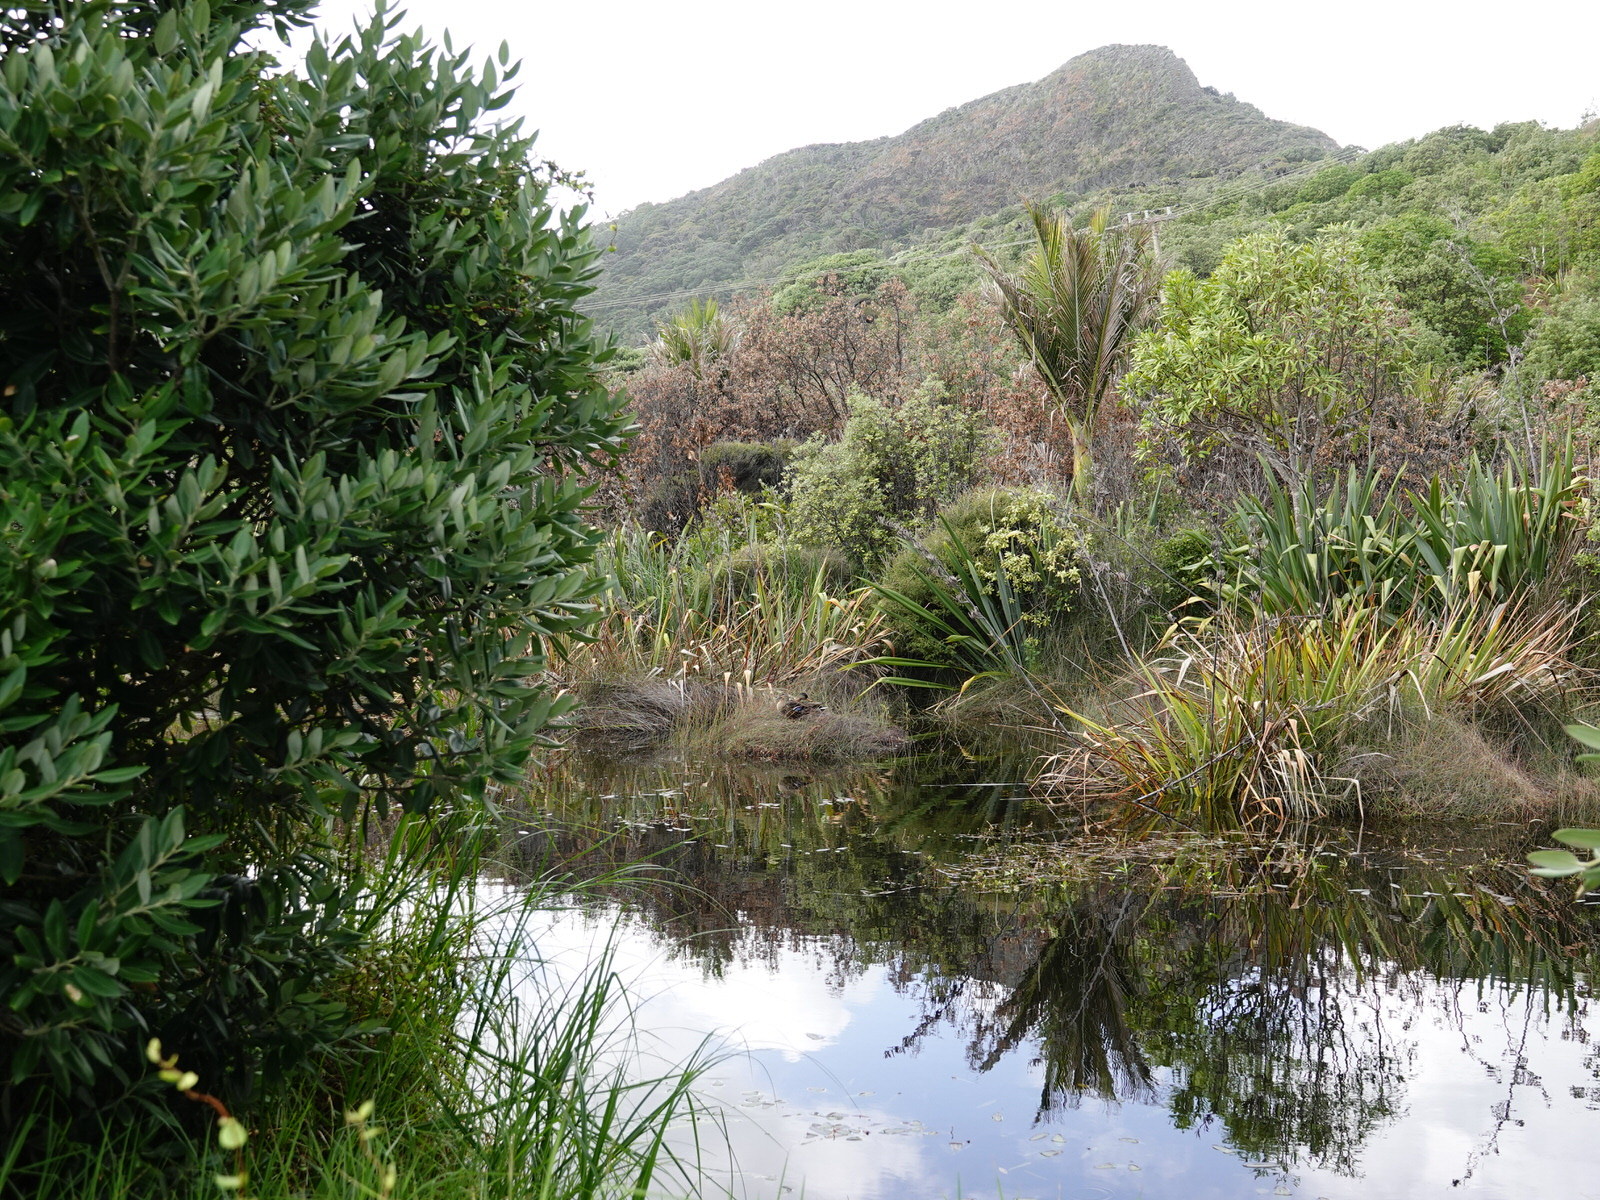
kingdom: Animalia
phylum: Chordata
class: Aves
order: Anseriformes
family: Anatidae
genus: Anas
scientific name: Anas
